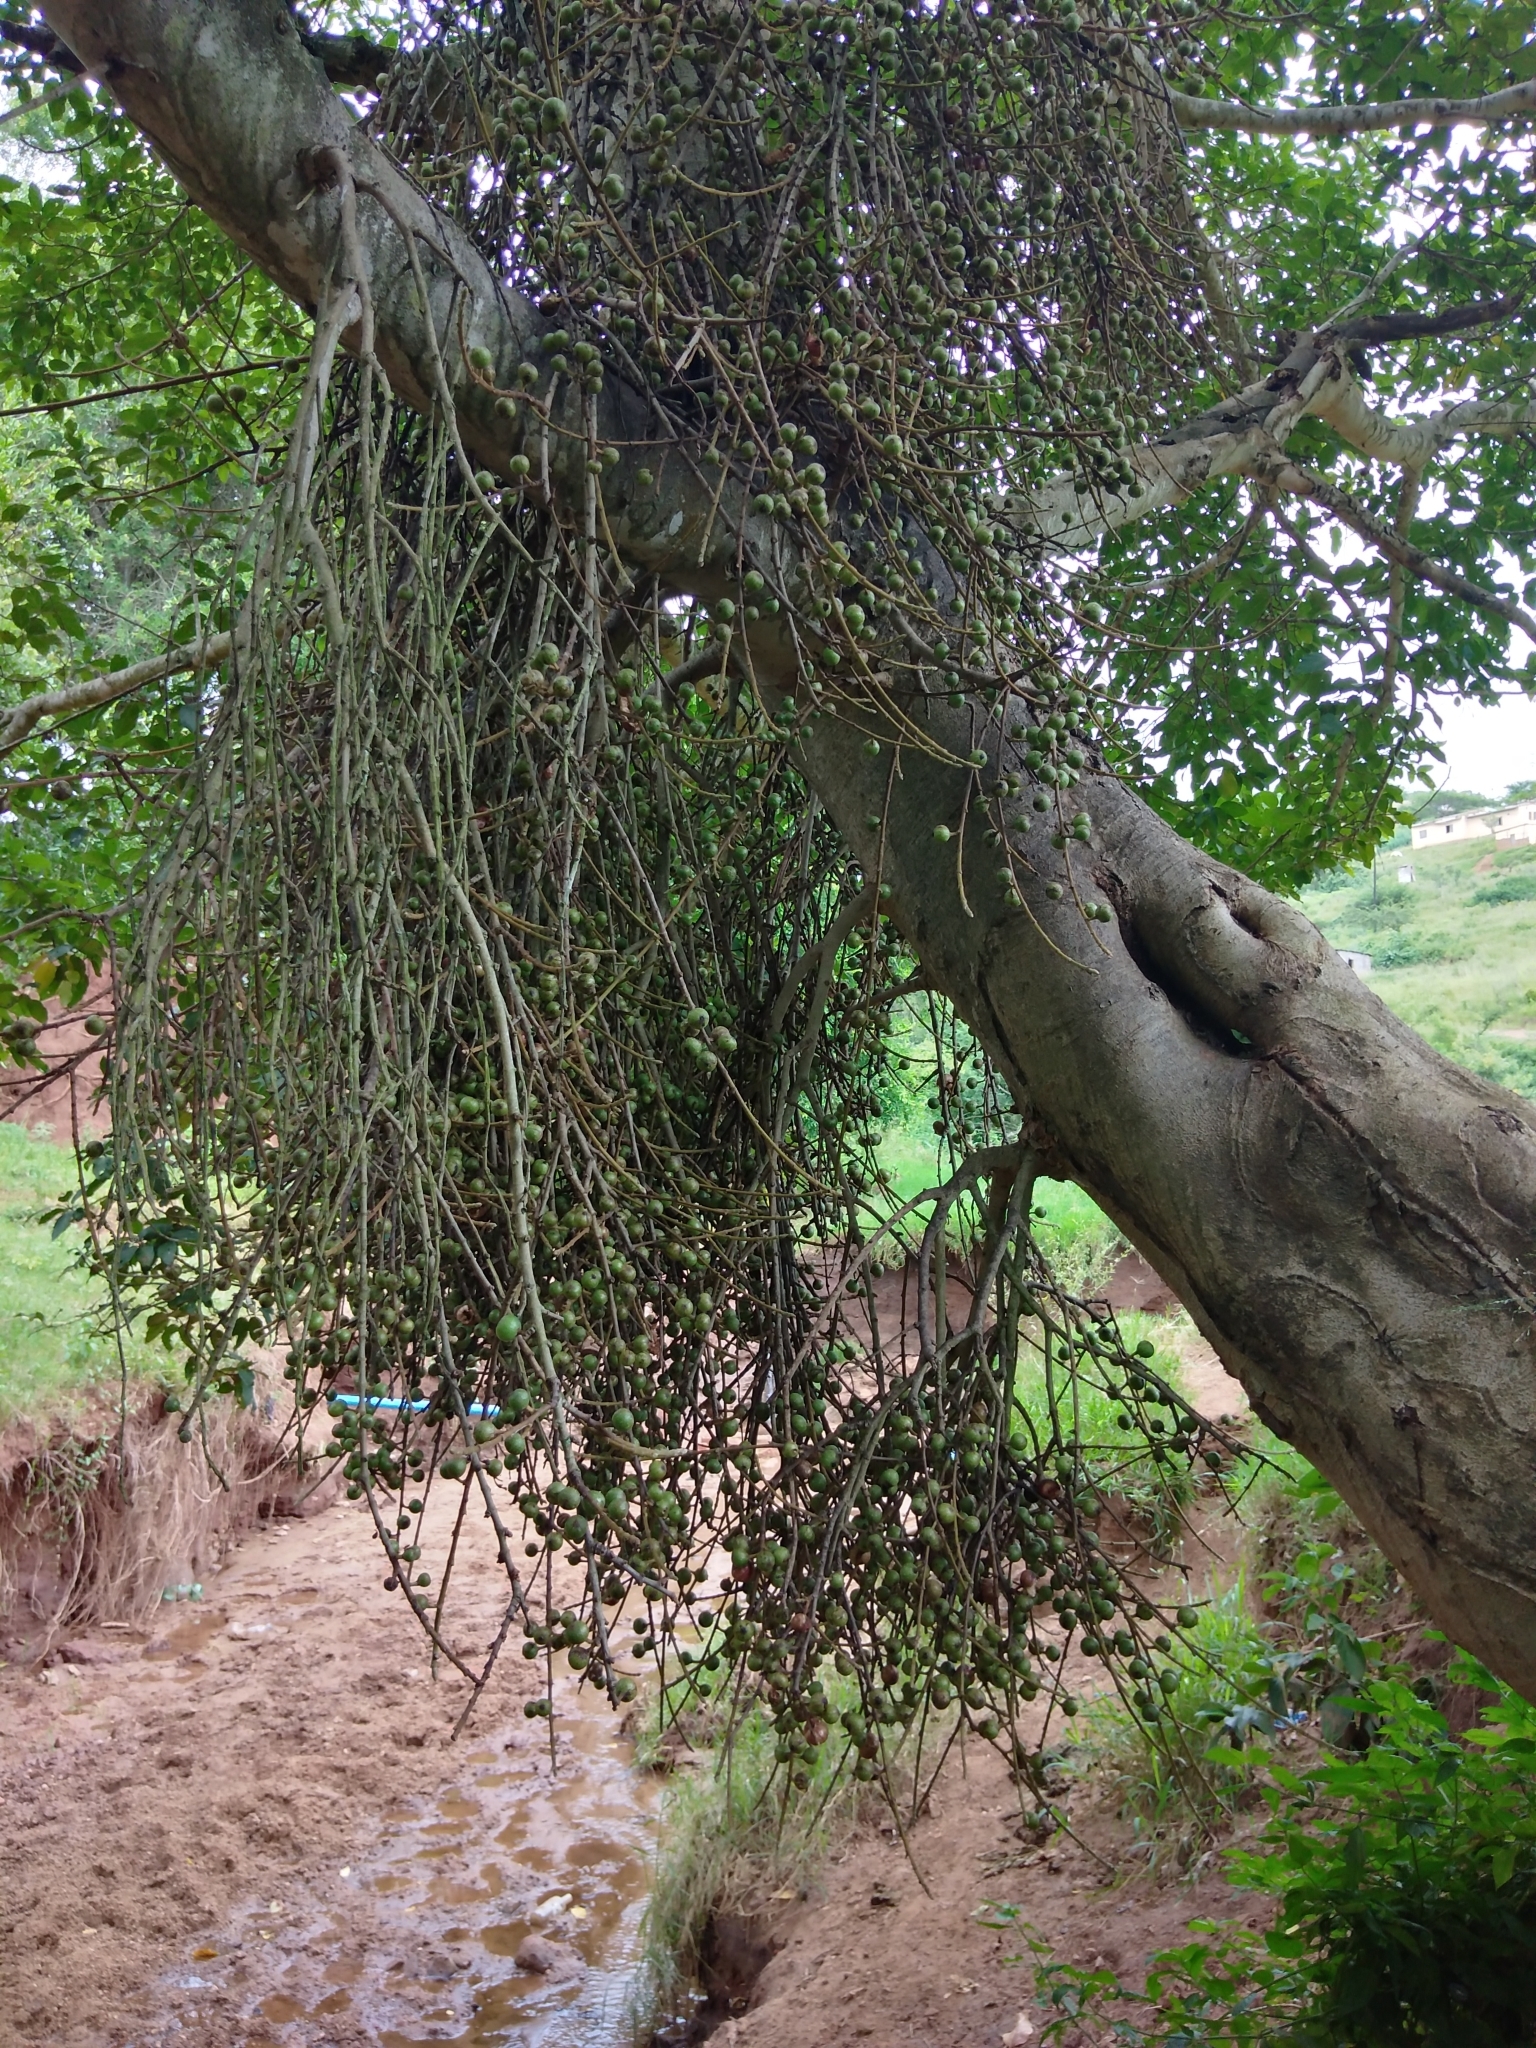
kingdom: Plantae
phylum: Tracheophyta
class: Magnoliopsida
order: Rosales
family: Moraceae
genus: Ficus
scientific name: Ficus sur
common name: Cape fig
